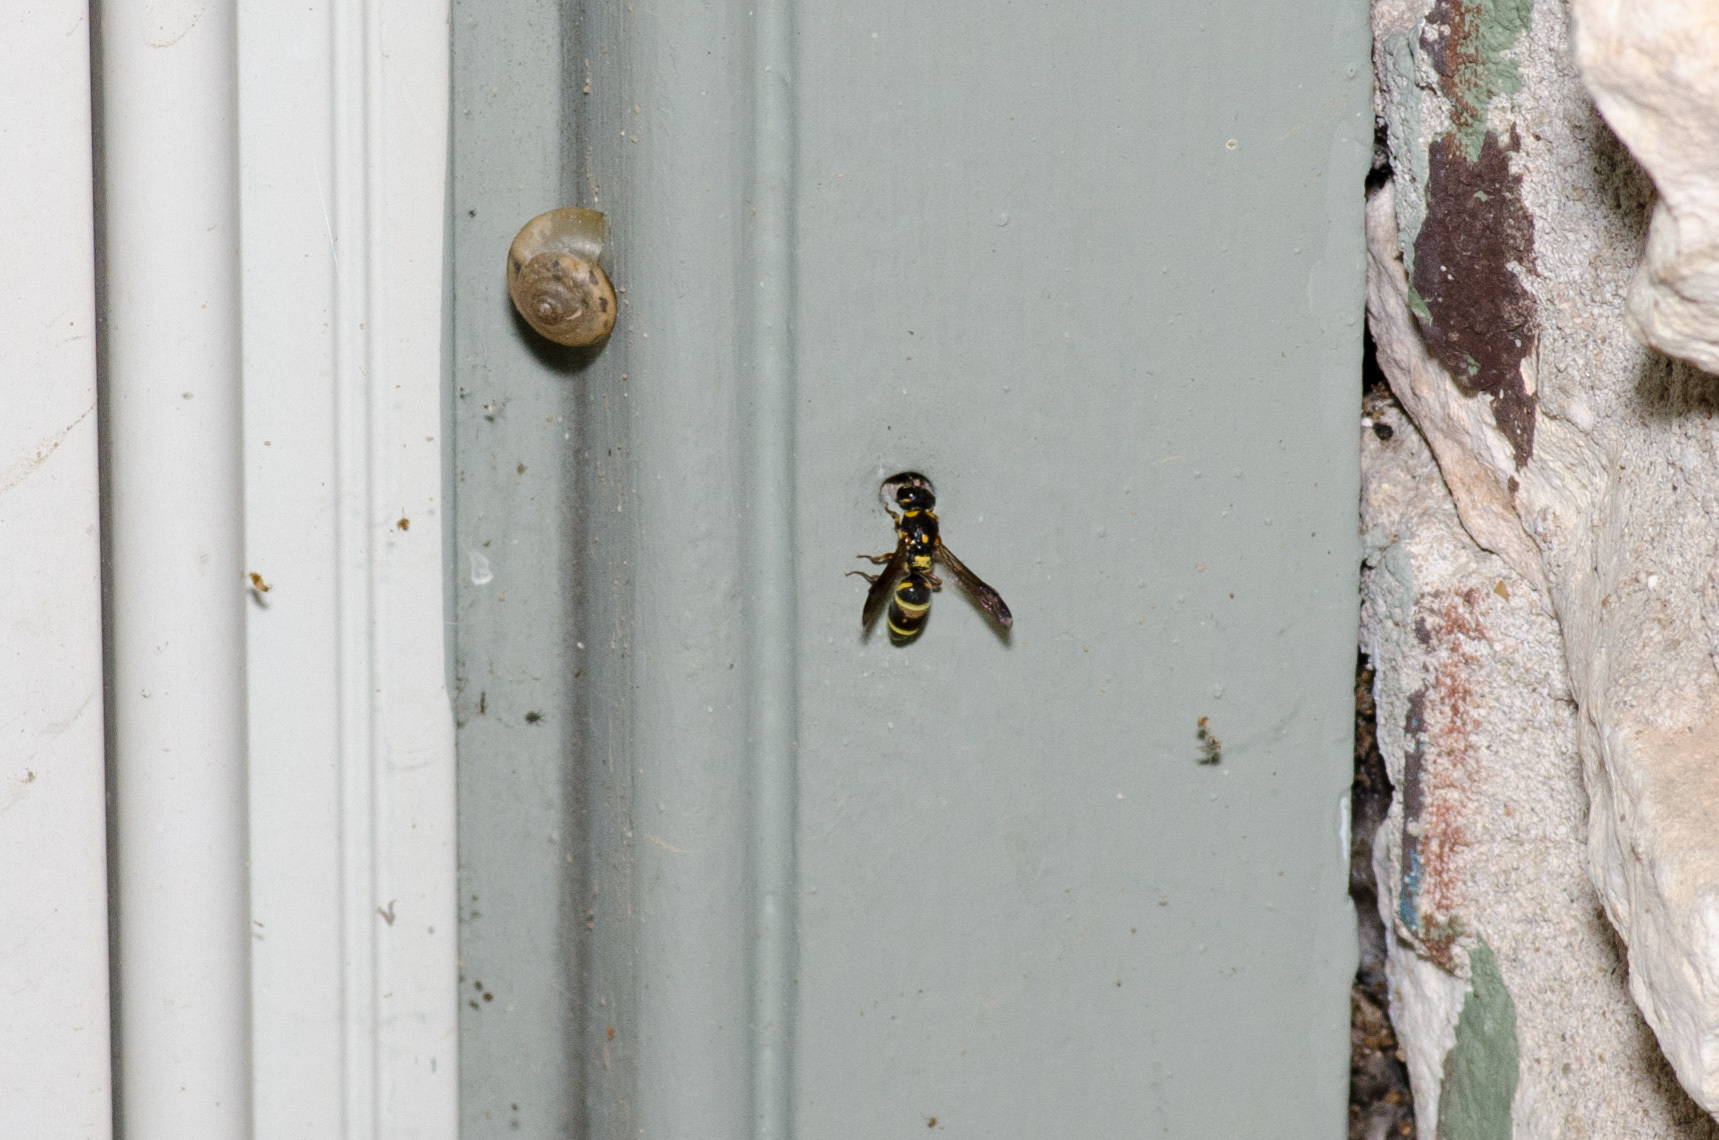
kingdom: Animalia
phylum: Arthropoda
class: Insecta
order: Hymenoptera
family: Eumenidae
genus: Parancistrocerus
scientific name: Parancistrocerus fulvipes
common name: Potter wasp
